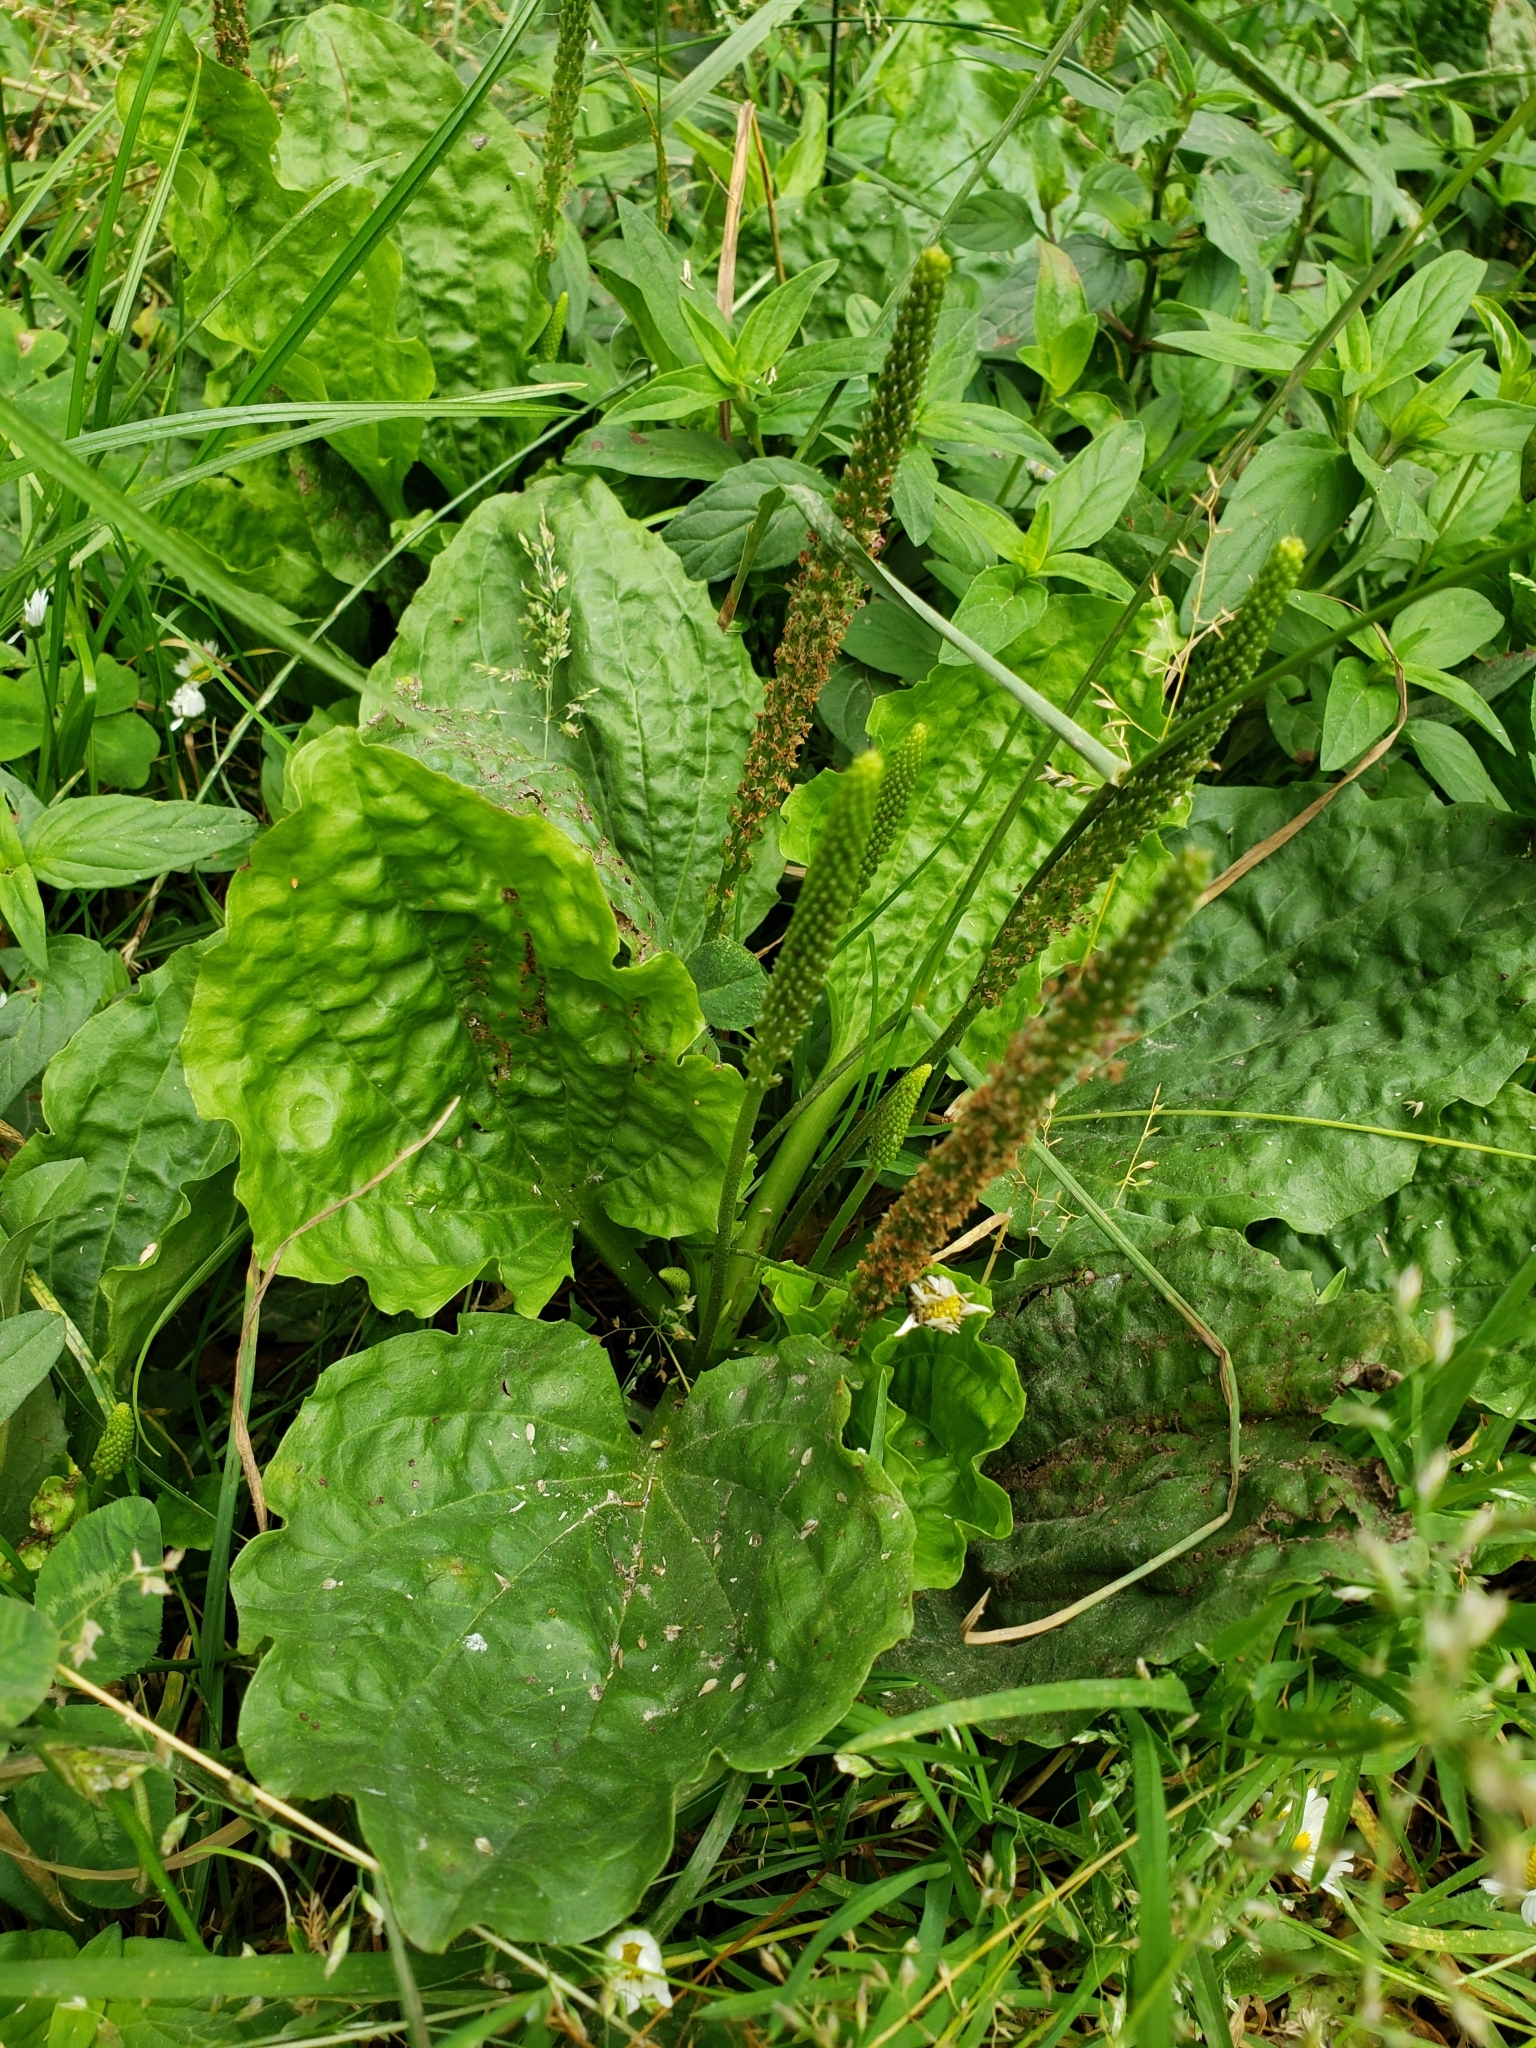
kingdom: Plantae
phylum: Tracheophyta
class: Magnoliopsida
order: Lamiales
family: Plantaginaceae
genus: Plantago
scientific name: Plantago major
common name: Common plantain
